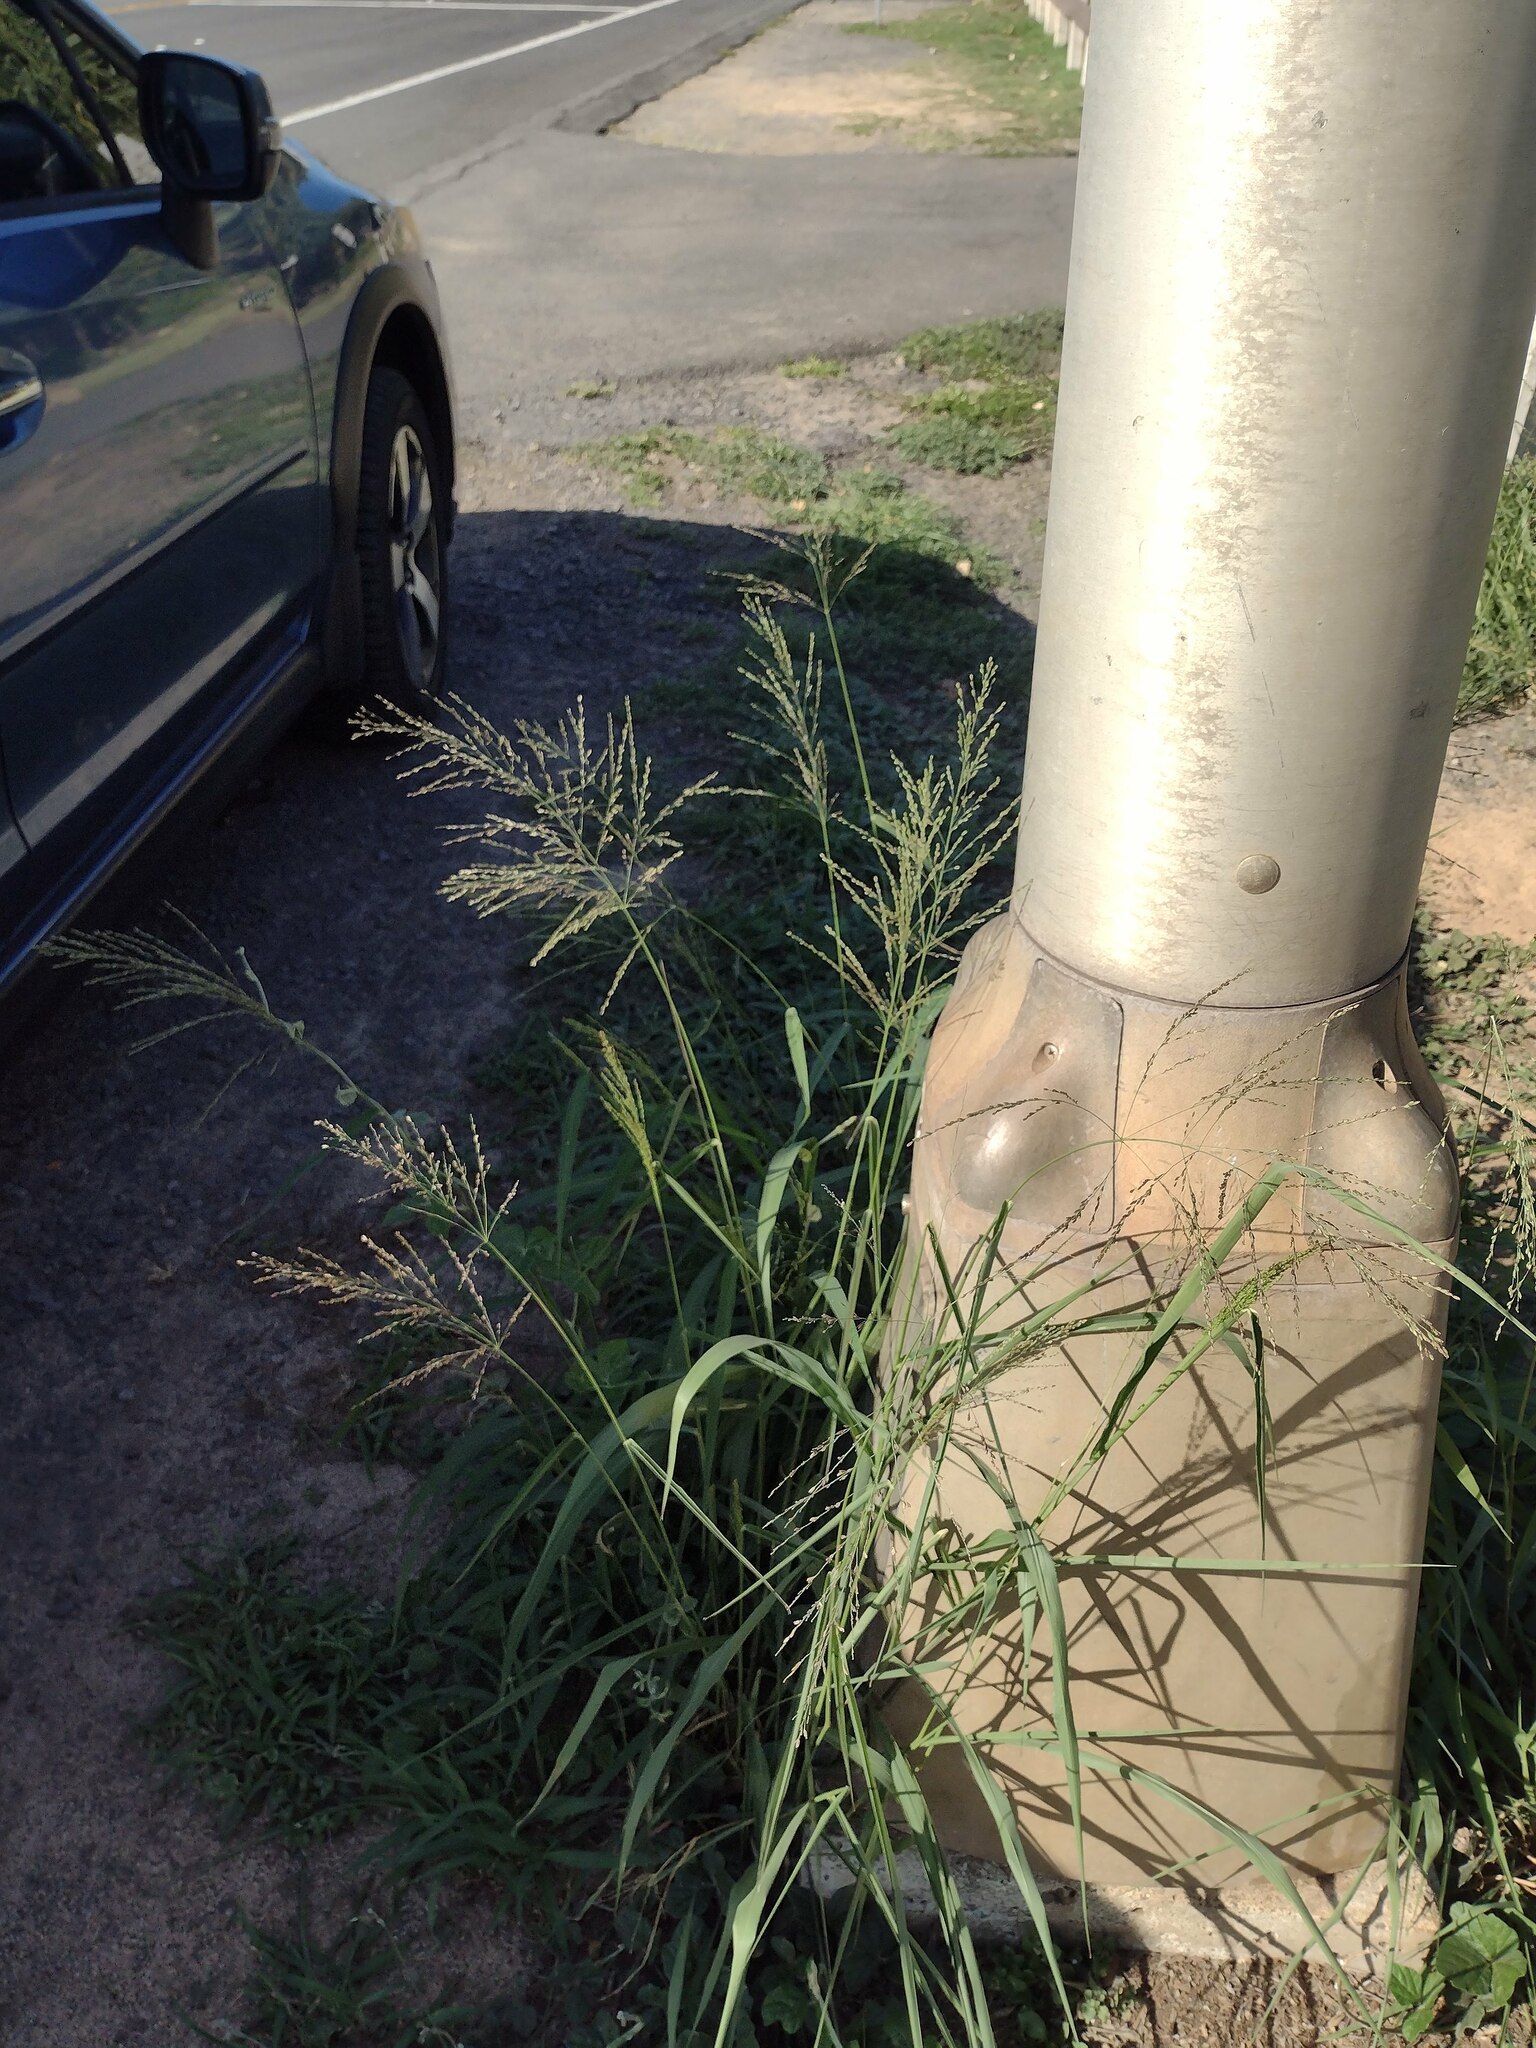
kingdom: Plantae
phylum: Tracheophyta
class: Liliopsida
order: Poales
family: Poaceae
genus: Megathyrsus
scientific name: Megathyrsus maximus
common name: Guineagrass
